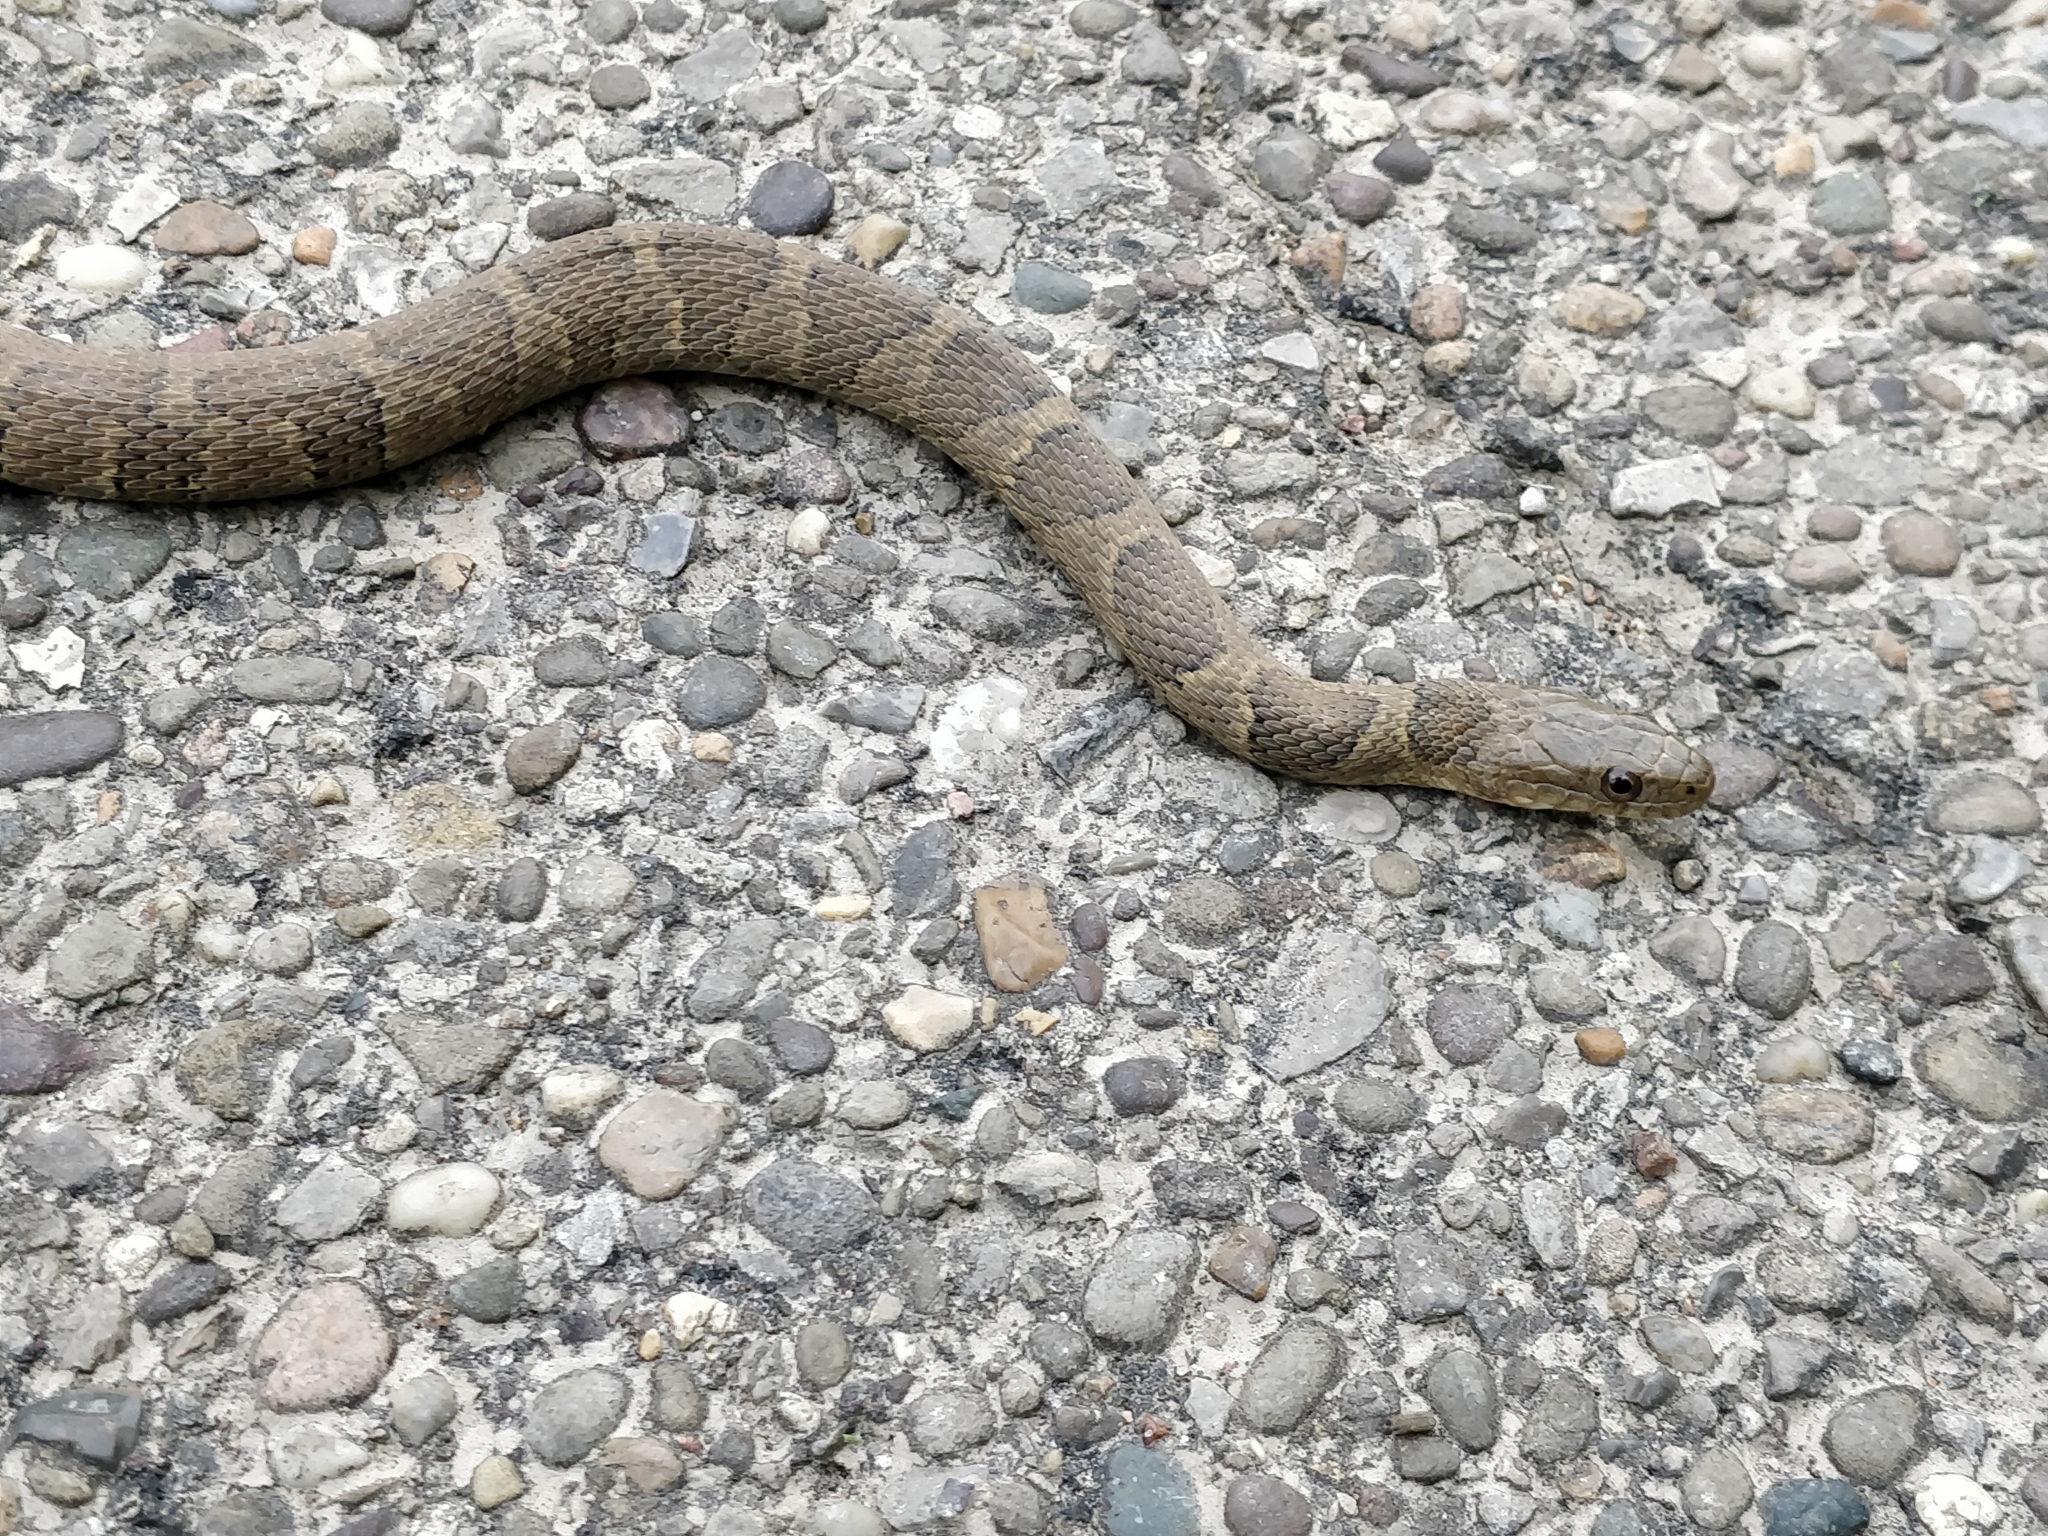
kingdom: Animalia
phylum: Chordata
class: Squamata
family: Colubridae
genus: Nerodia
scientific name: Nerodia sipedon
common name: Northern water snake
